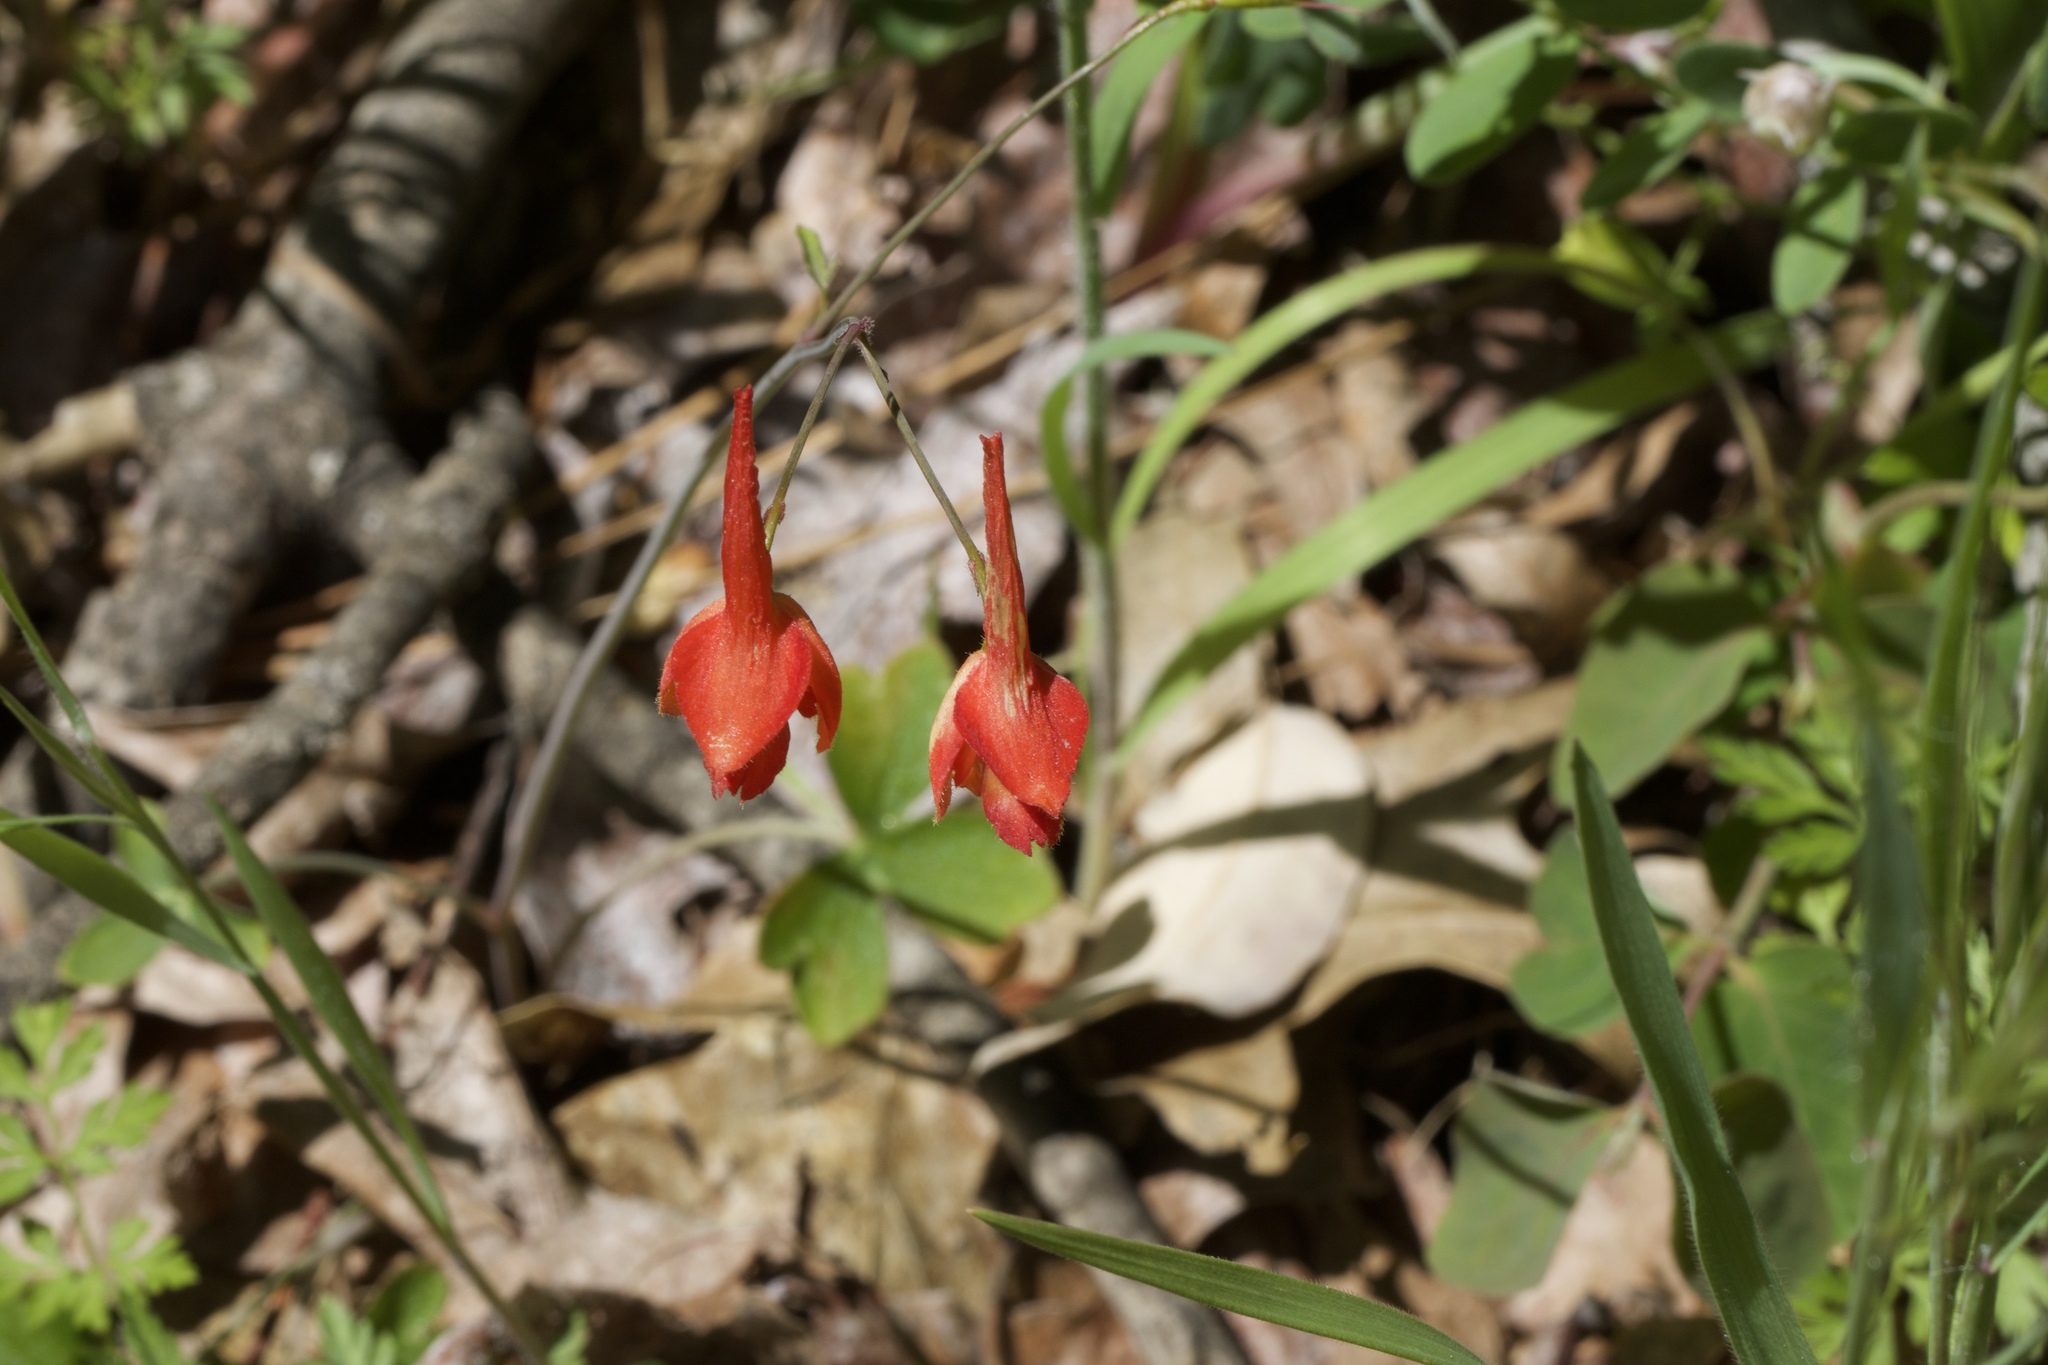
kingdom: Plantae
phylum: Tracheophyta
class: Magnoliopsida
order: Ranunculales
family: Ranunculaceae
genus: Delphinium
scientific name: Delphinium nudicaule
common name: Red larkspur
